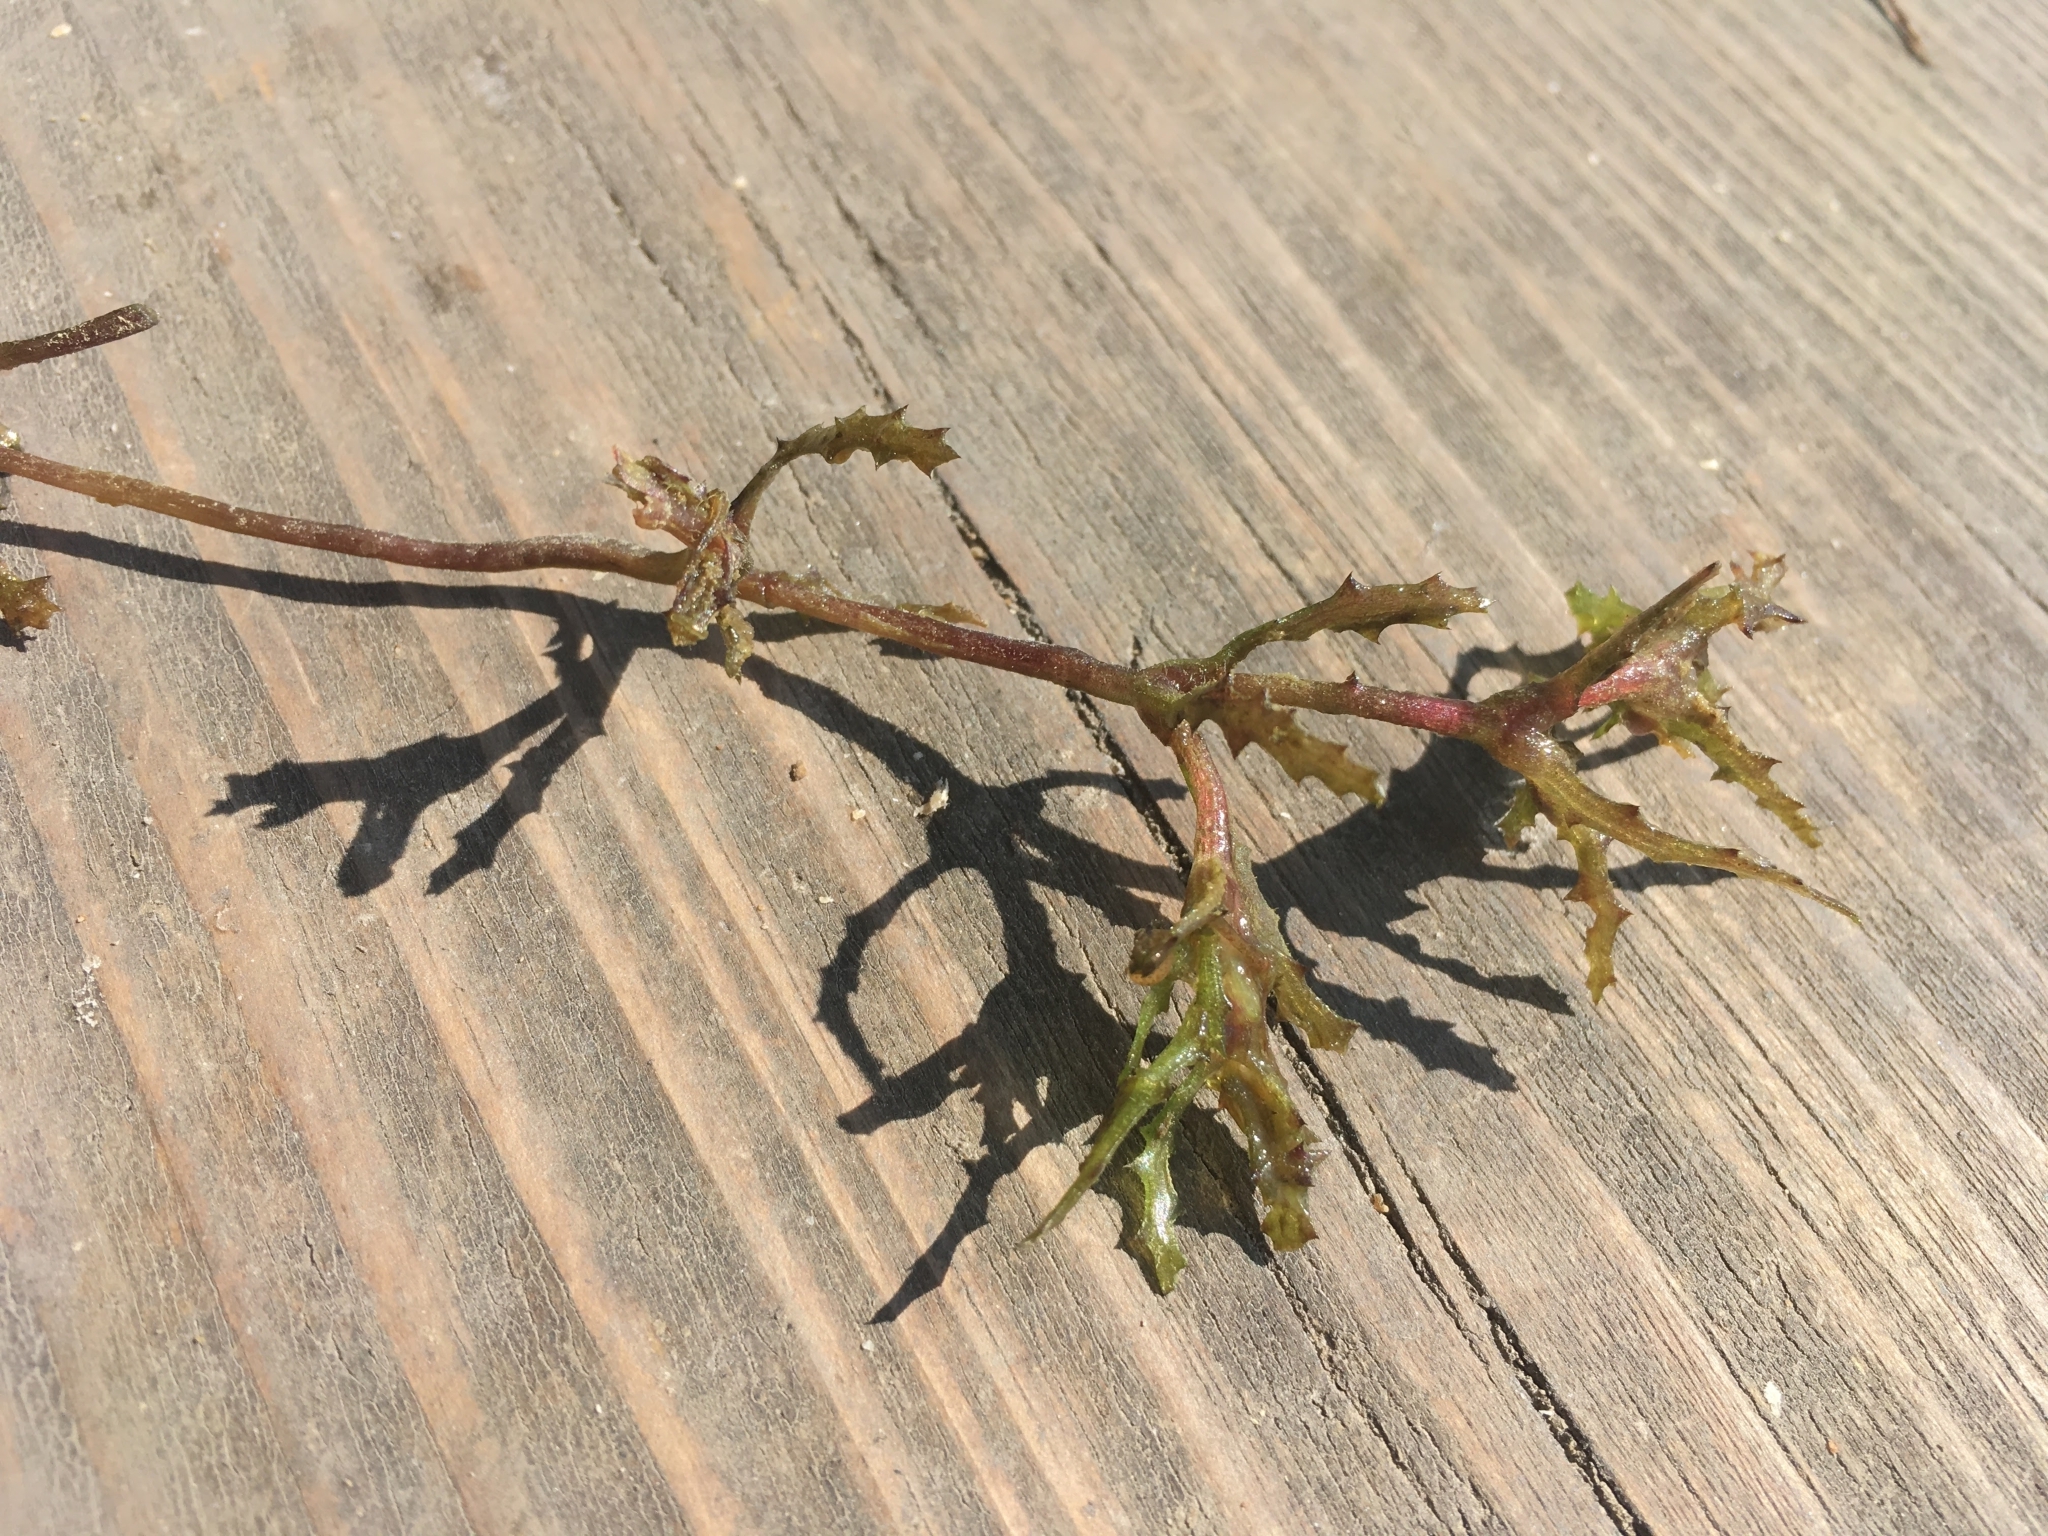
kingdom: Plantae
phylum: Tracheophyta
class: Liliopsida
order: Alismatales
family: Hydrocharitaceae
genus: Najas
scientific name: Najas marina
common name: Holly-leaved naiad
